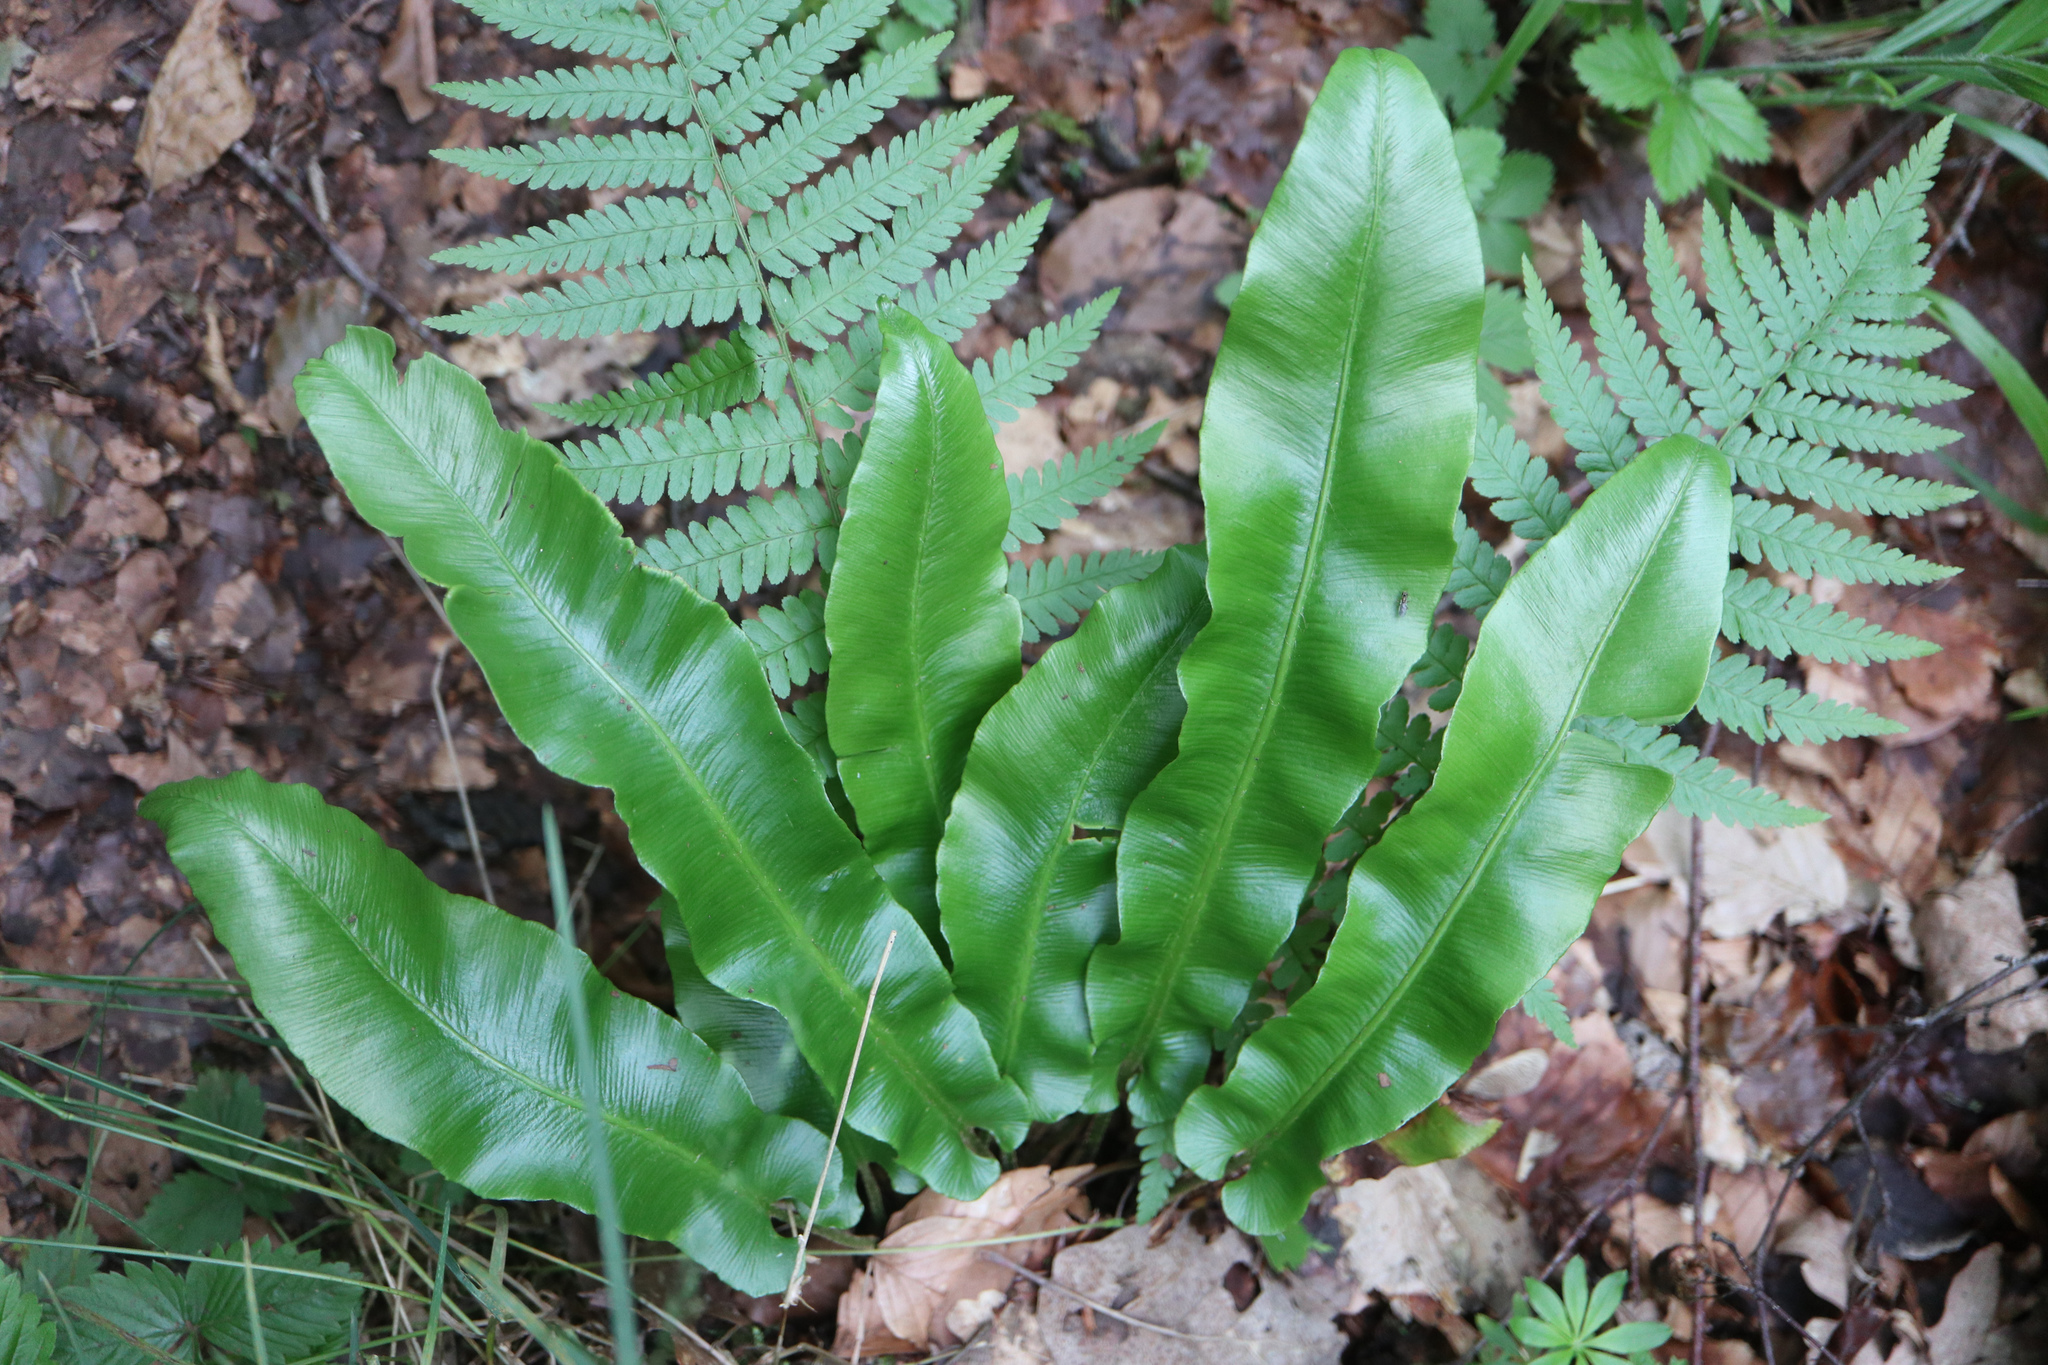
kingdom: Plantae
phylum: Tracheophyta
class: Polypodiopsida
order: Polypodiales
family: Aspleniaceae
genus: Asplenium
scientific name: Asplenium scolopendrium
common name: Hart's-tongue fern
